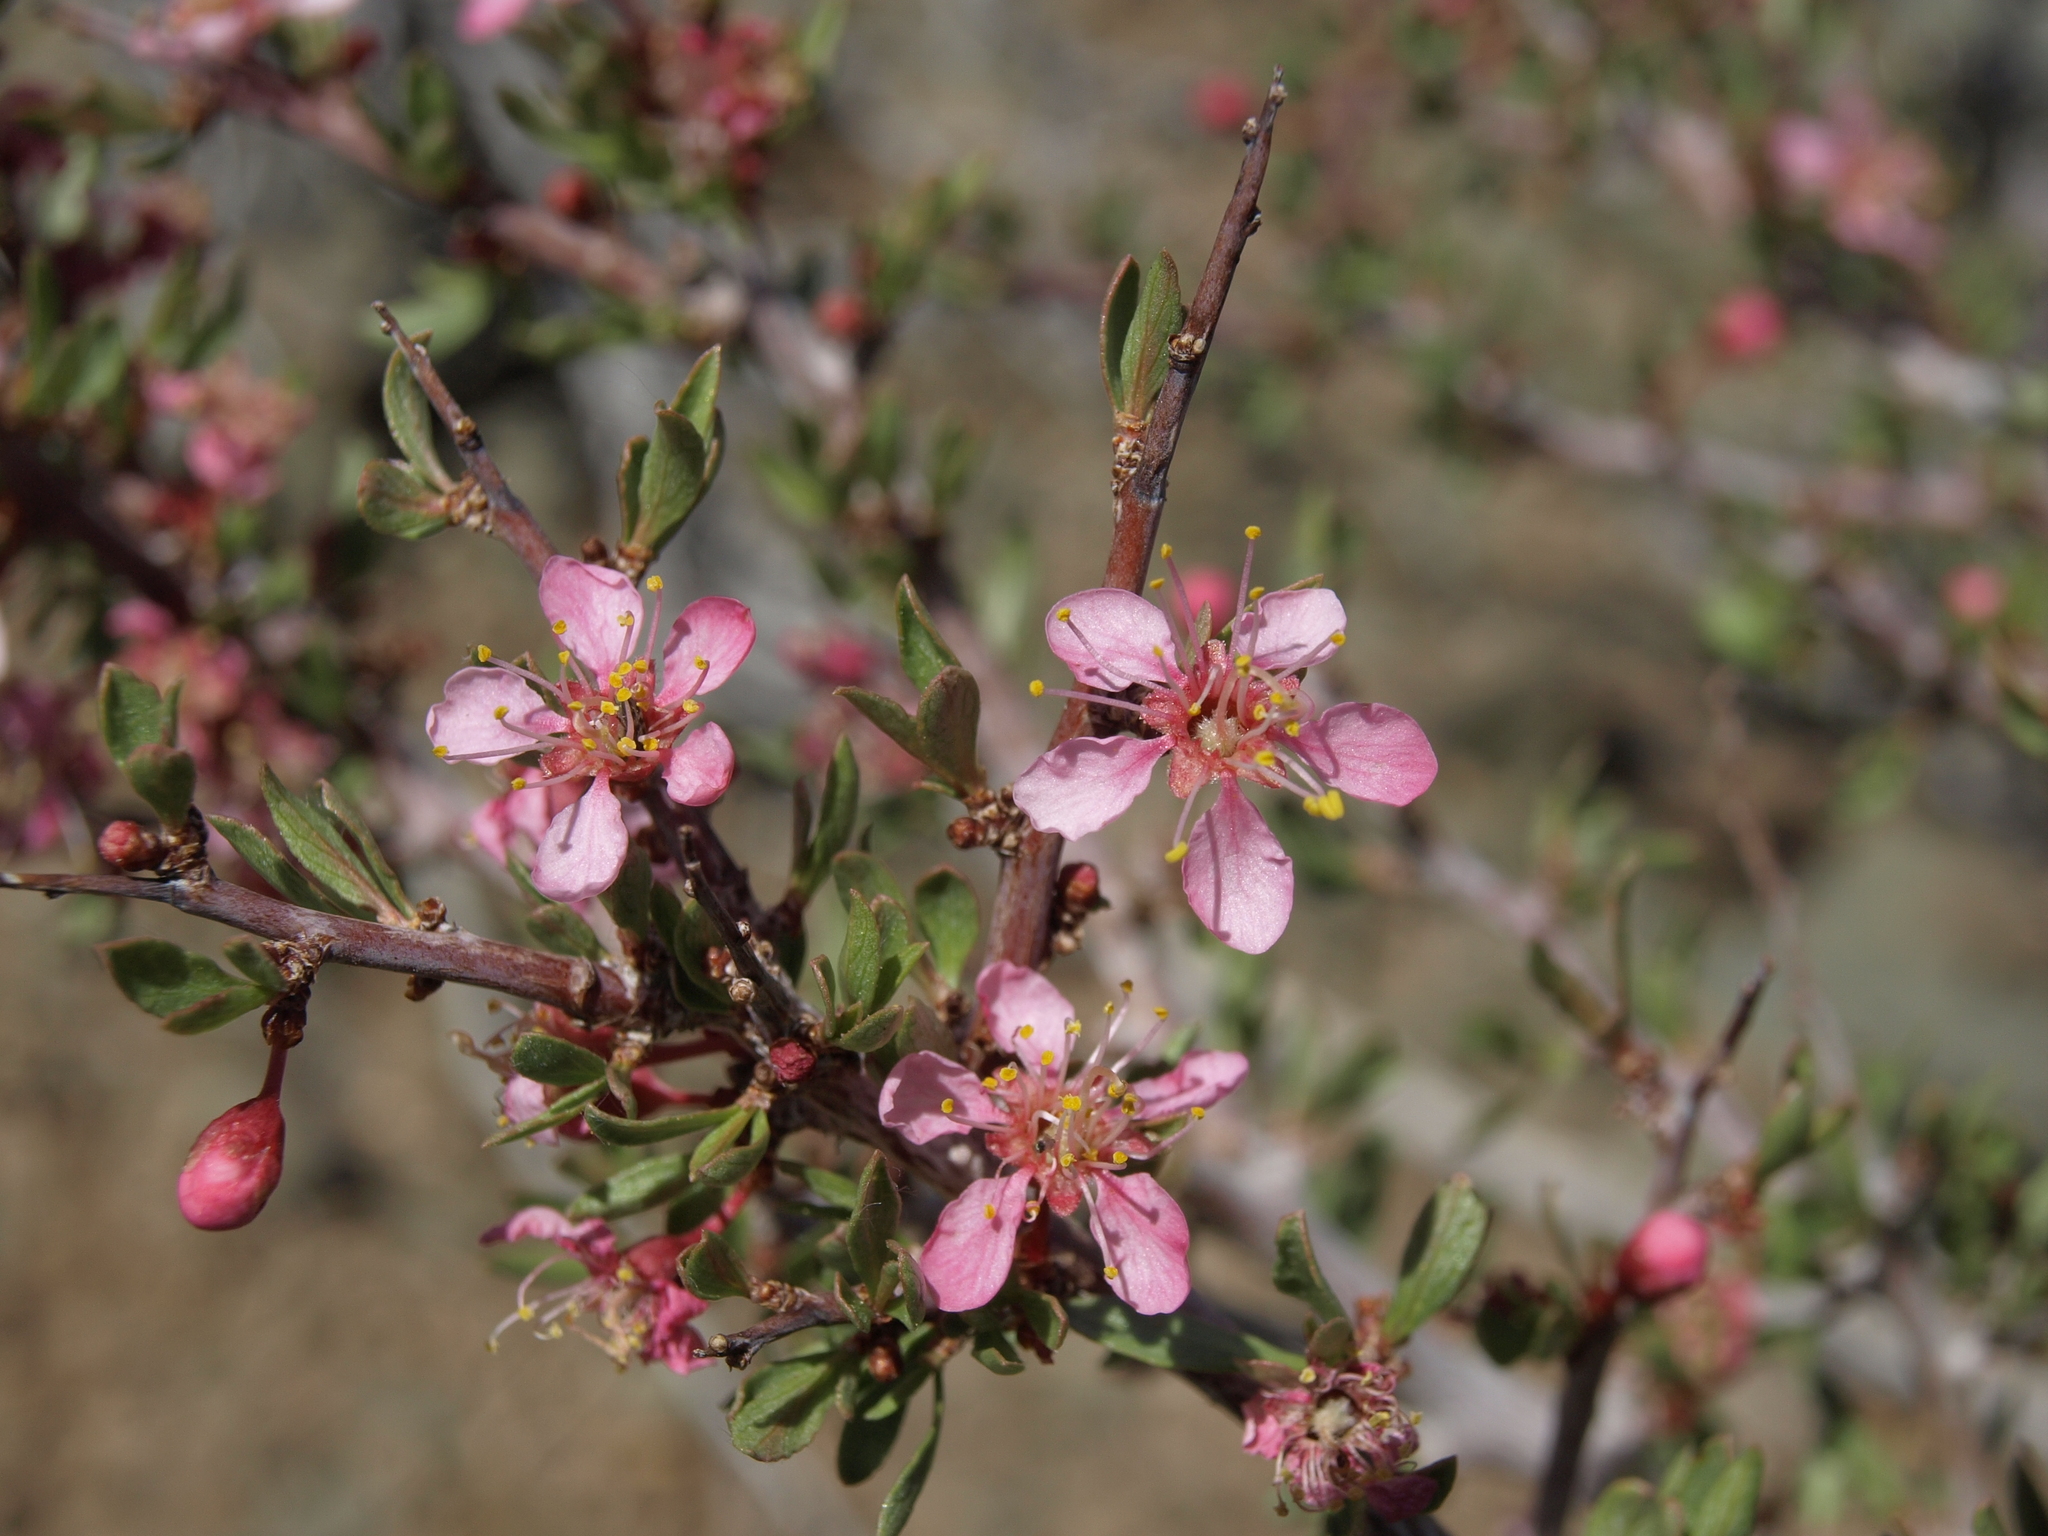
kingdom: Plantae
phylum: Tracheophyta
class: Magnoliopsida
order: Rosales
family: Rosaceae
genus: Prunus
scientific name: Prunus andersonii
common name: Desert peach
